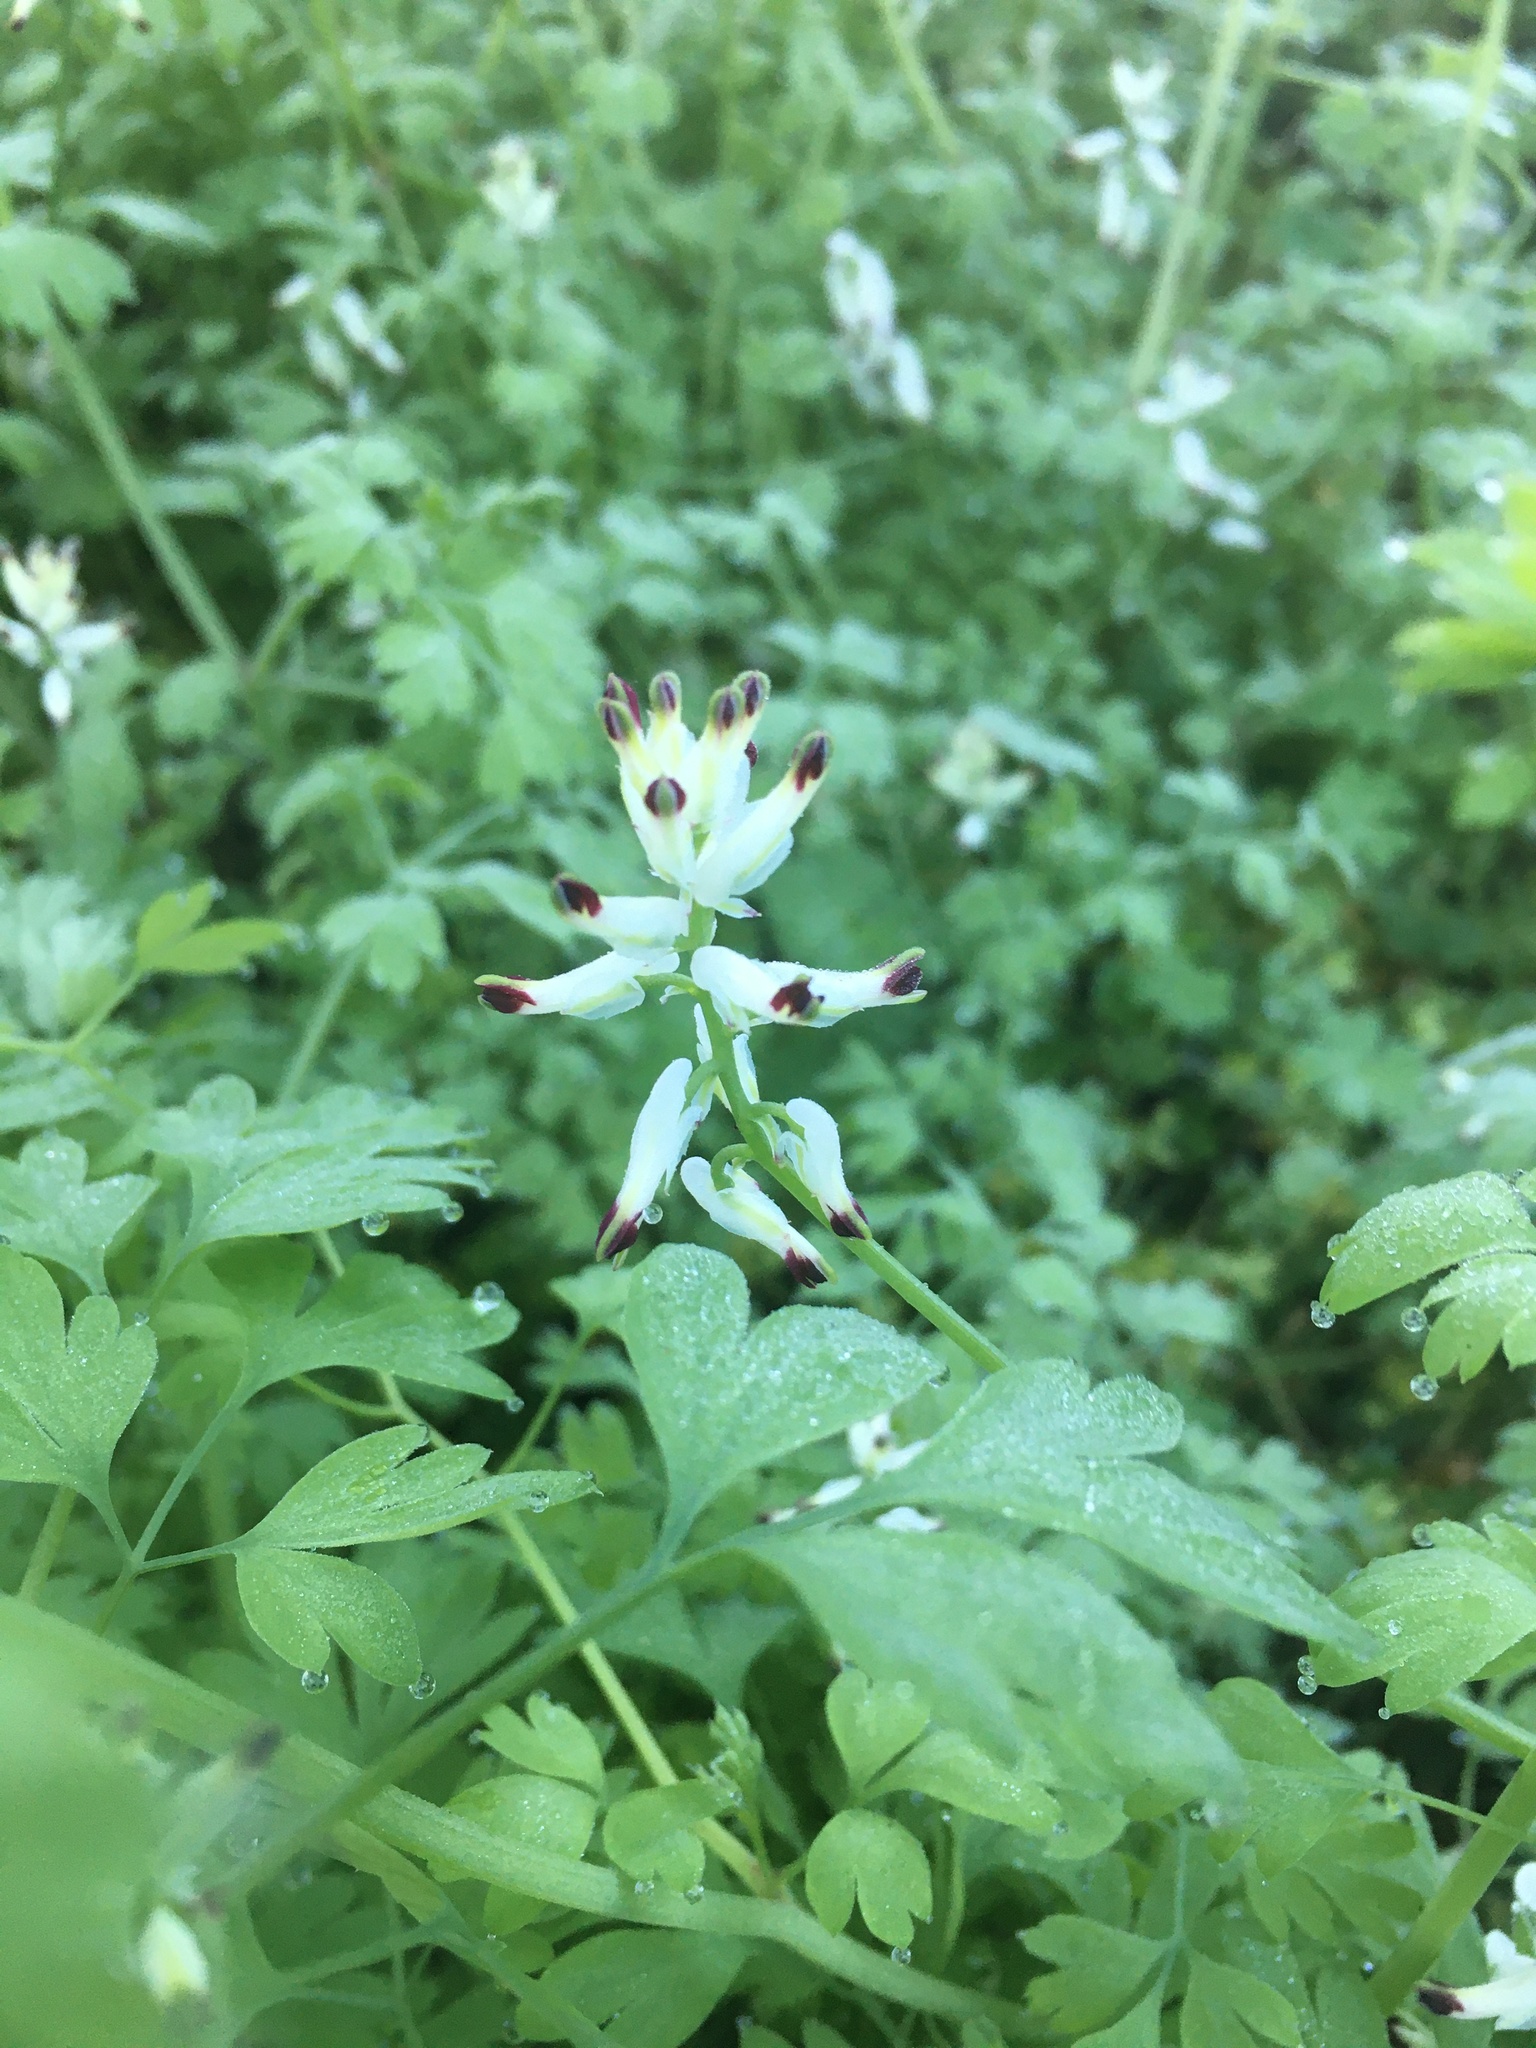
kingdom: Plantae
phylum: Tracheophyta
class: Magnoliopsida
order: Ranunculales
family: Papaveraceae
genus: Fumaria
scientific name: Fumaria capreolata
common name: White ramping-fumitory
